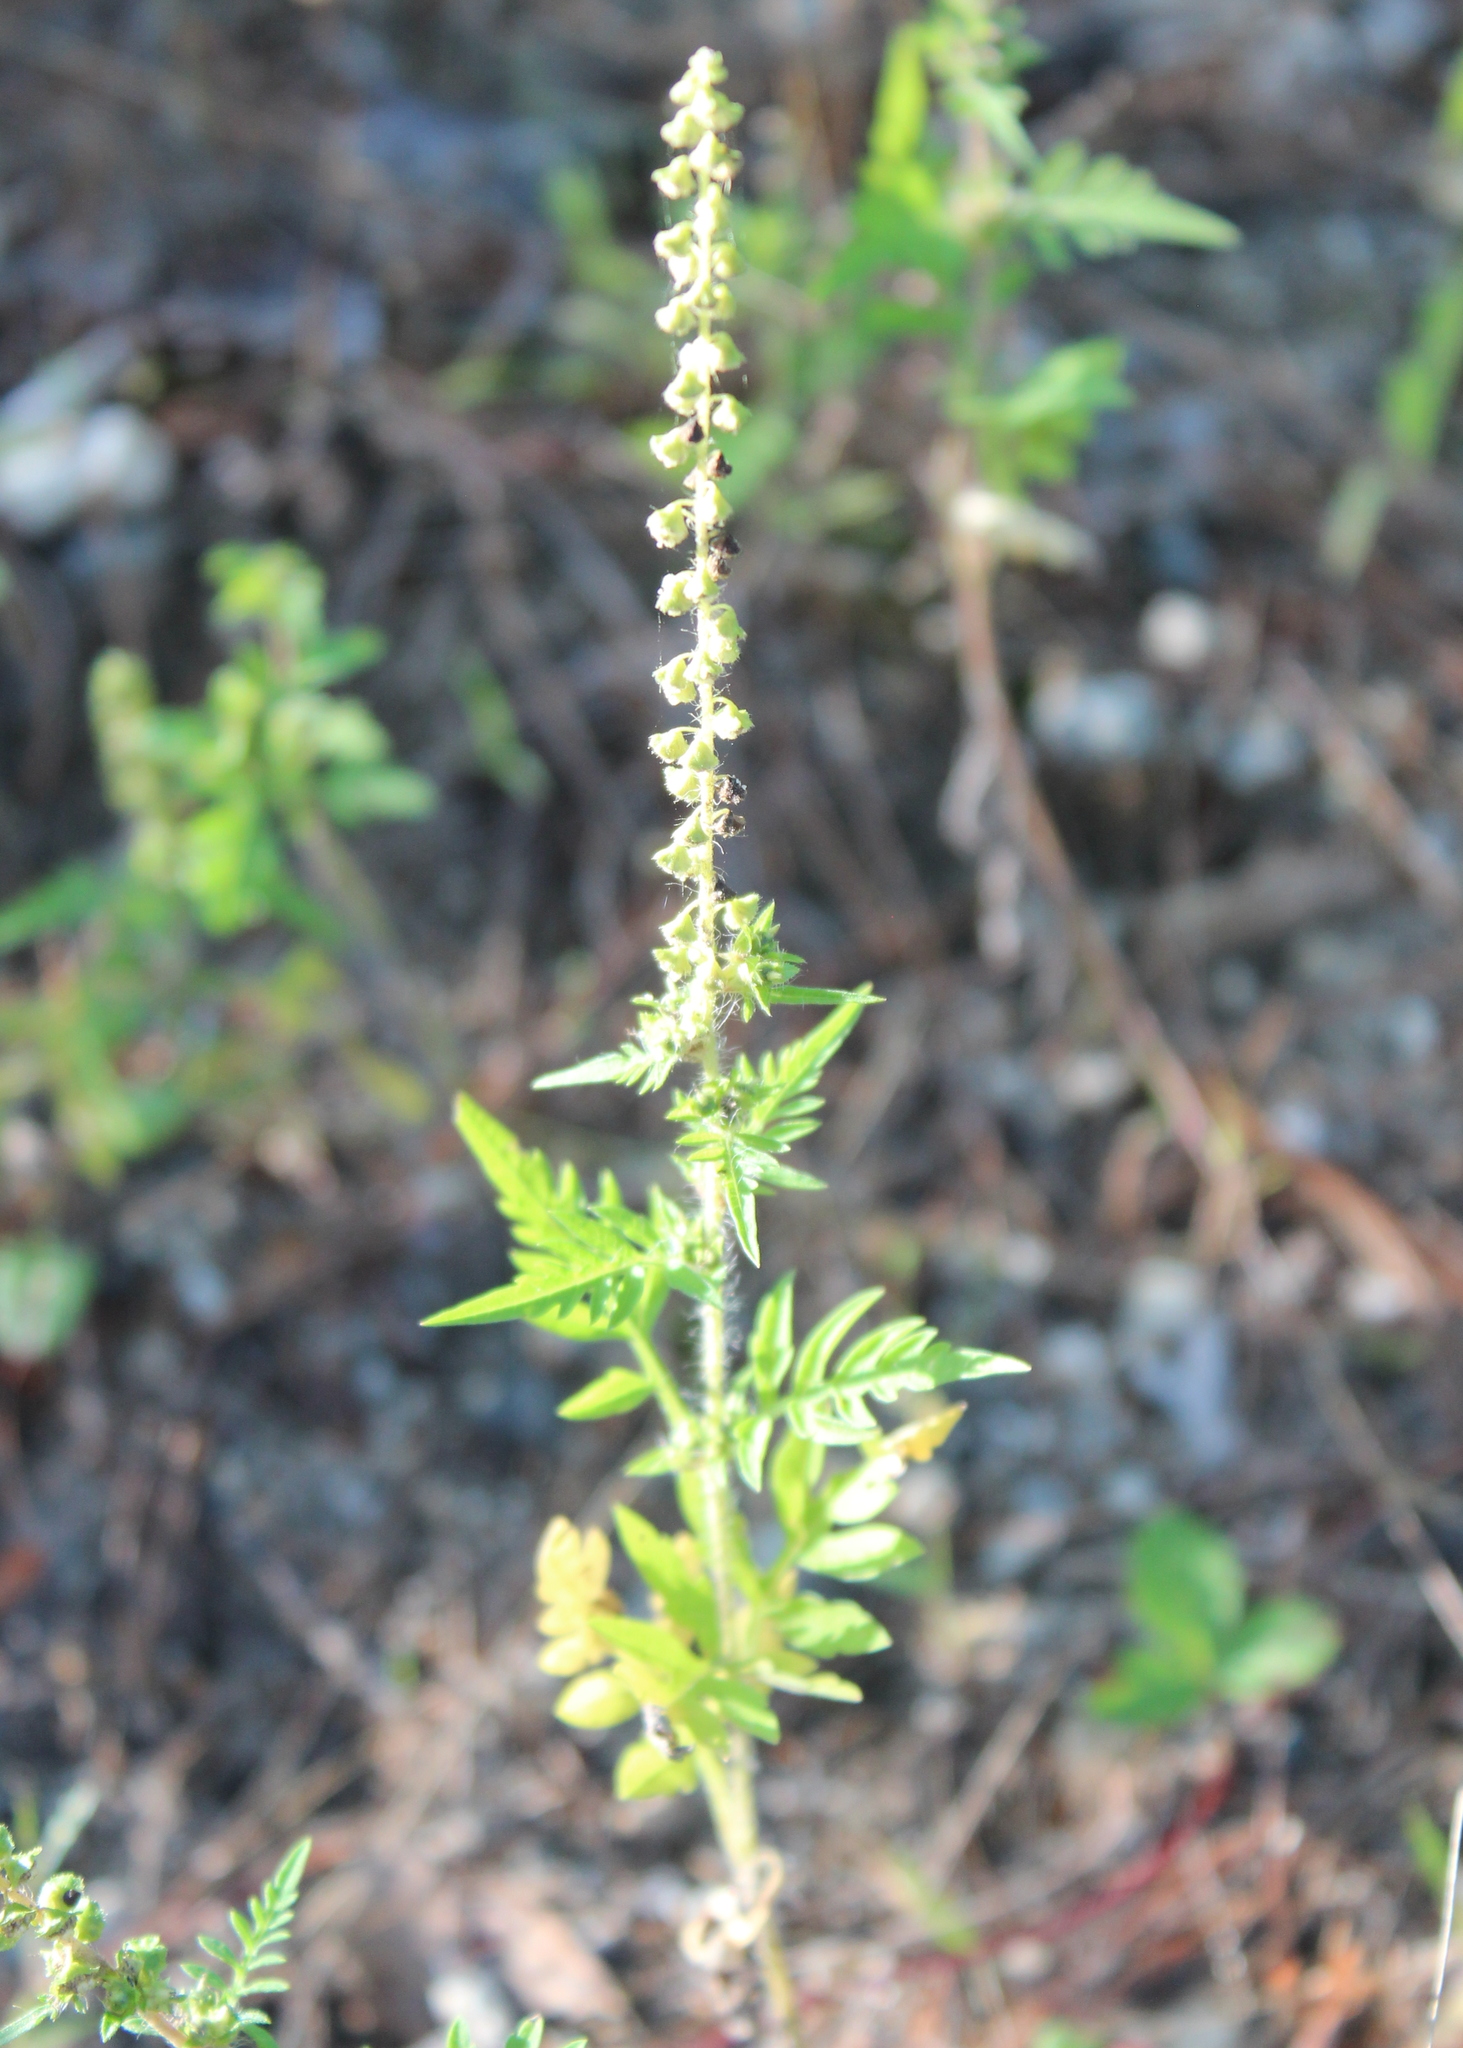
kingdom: Plantae
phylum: Tracheophyta
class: Magnoliopsida
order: Asterales
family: Asteraceae
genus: Ambrosia
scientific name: Ambrosia artemisiifolia
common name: Annual ragweed
